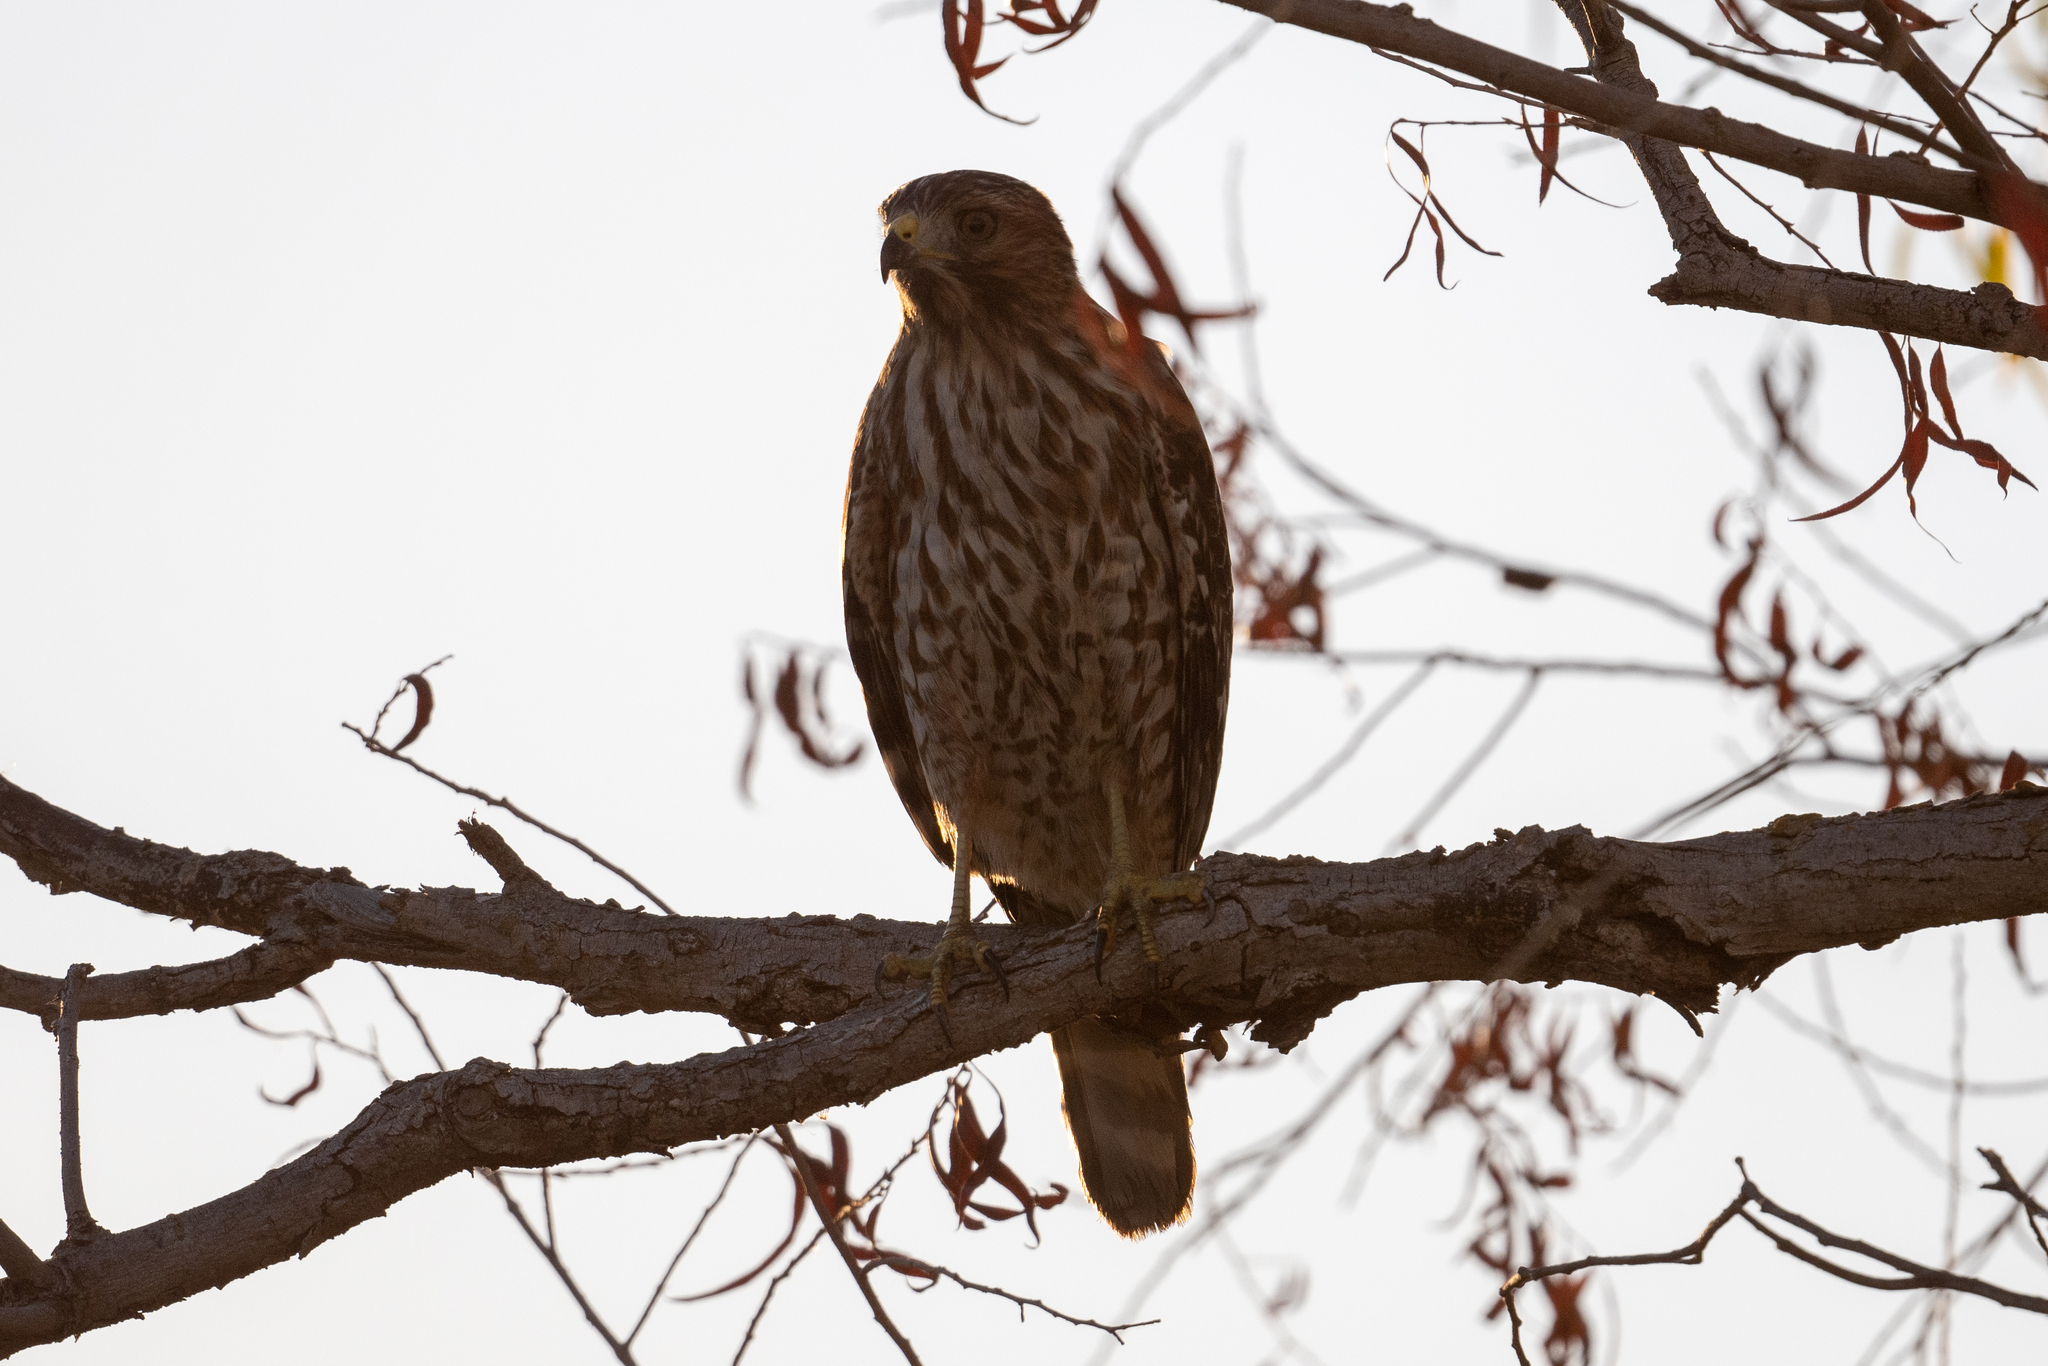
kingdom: Animalia
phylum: Chordata
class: Aves
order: Accipitriformes
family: Accipitridae
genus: Buteo
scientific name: Buteo lineatus
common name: Red-shouldered hawk
